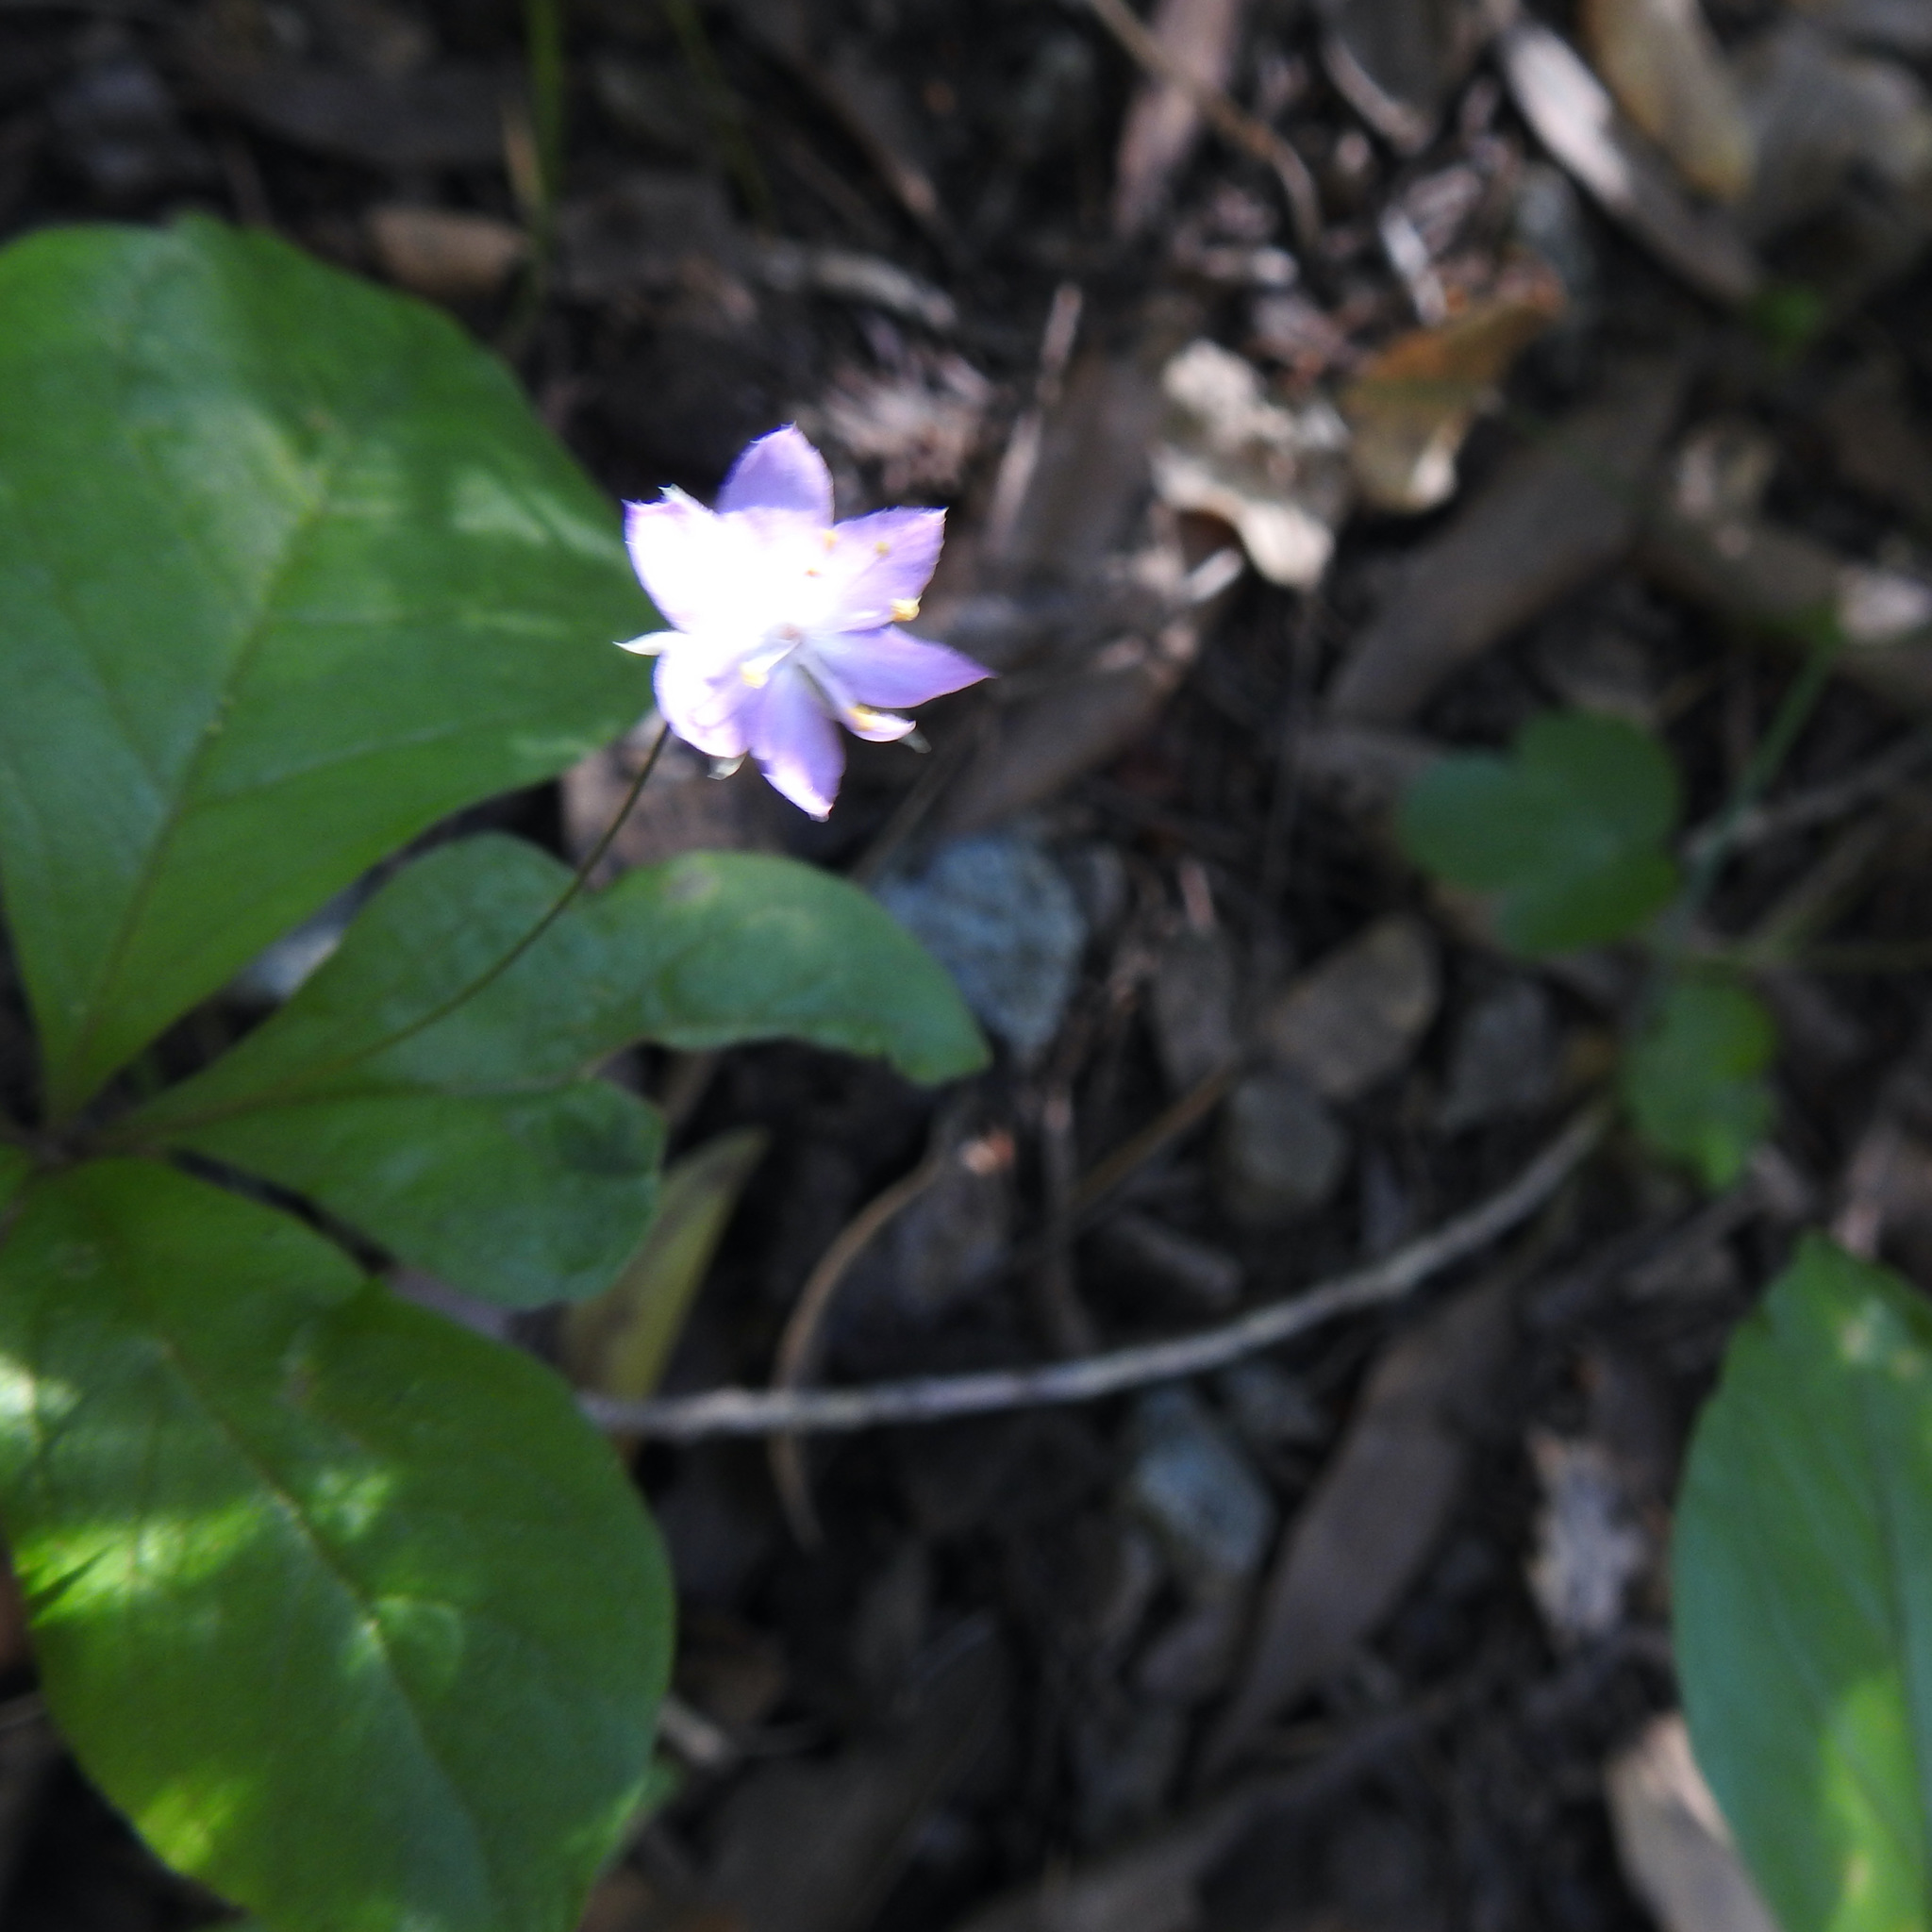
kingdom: Plantae
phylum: Tracheophyta
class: Magnoliopsida
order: Ericales
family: Primulaceae
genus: Lysimachia
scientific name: Lysimachia latifolia
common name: Pacific starflower
